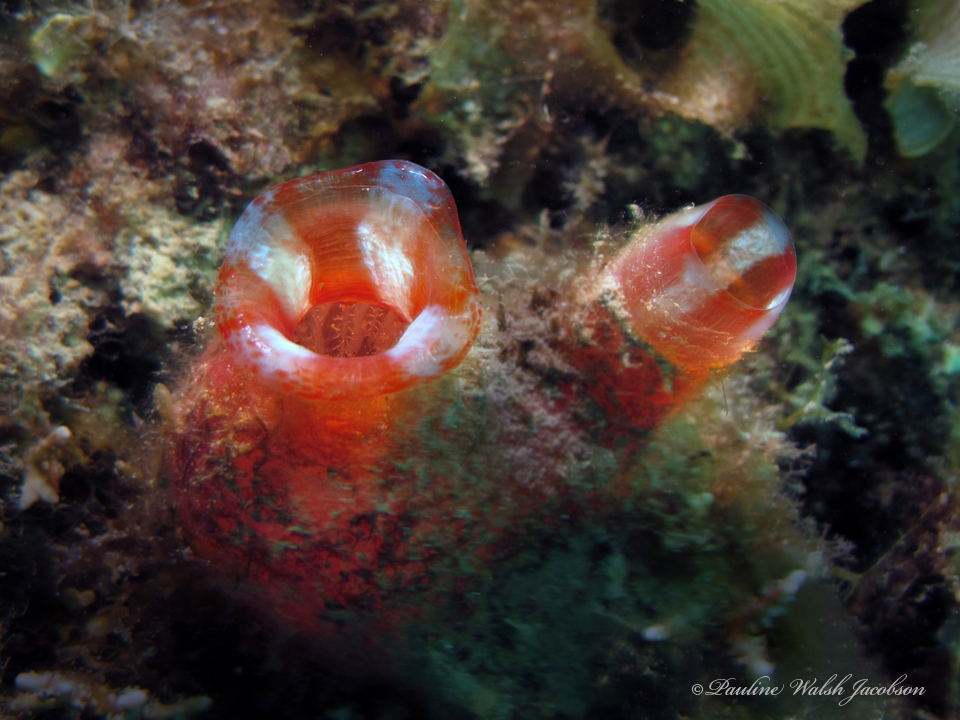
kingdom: Animalia
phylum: Chordata
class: Ascidiacea
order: Stolidobranchia
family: Pyuridae
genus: Herdmania
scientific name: Herdmania momus
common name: Red-throated ascidian
